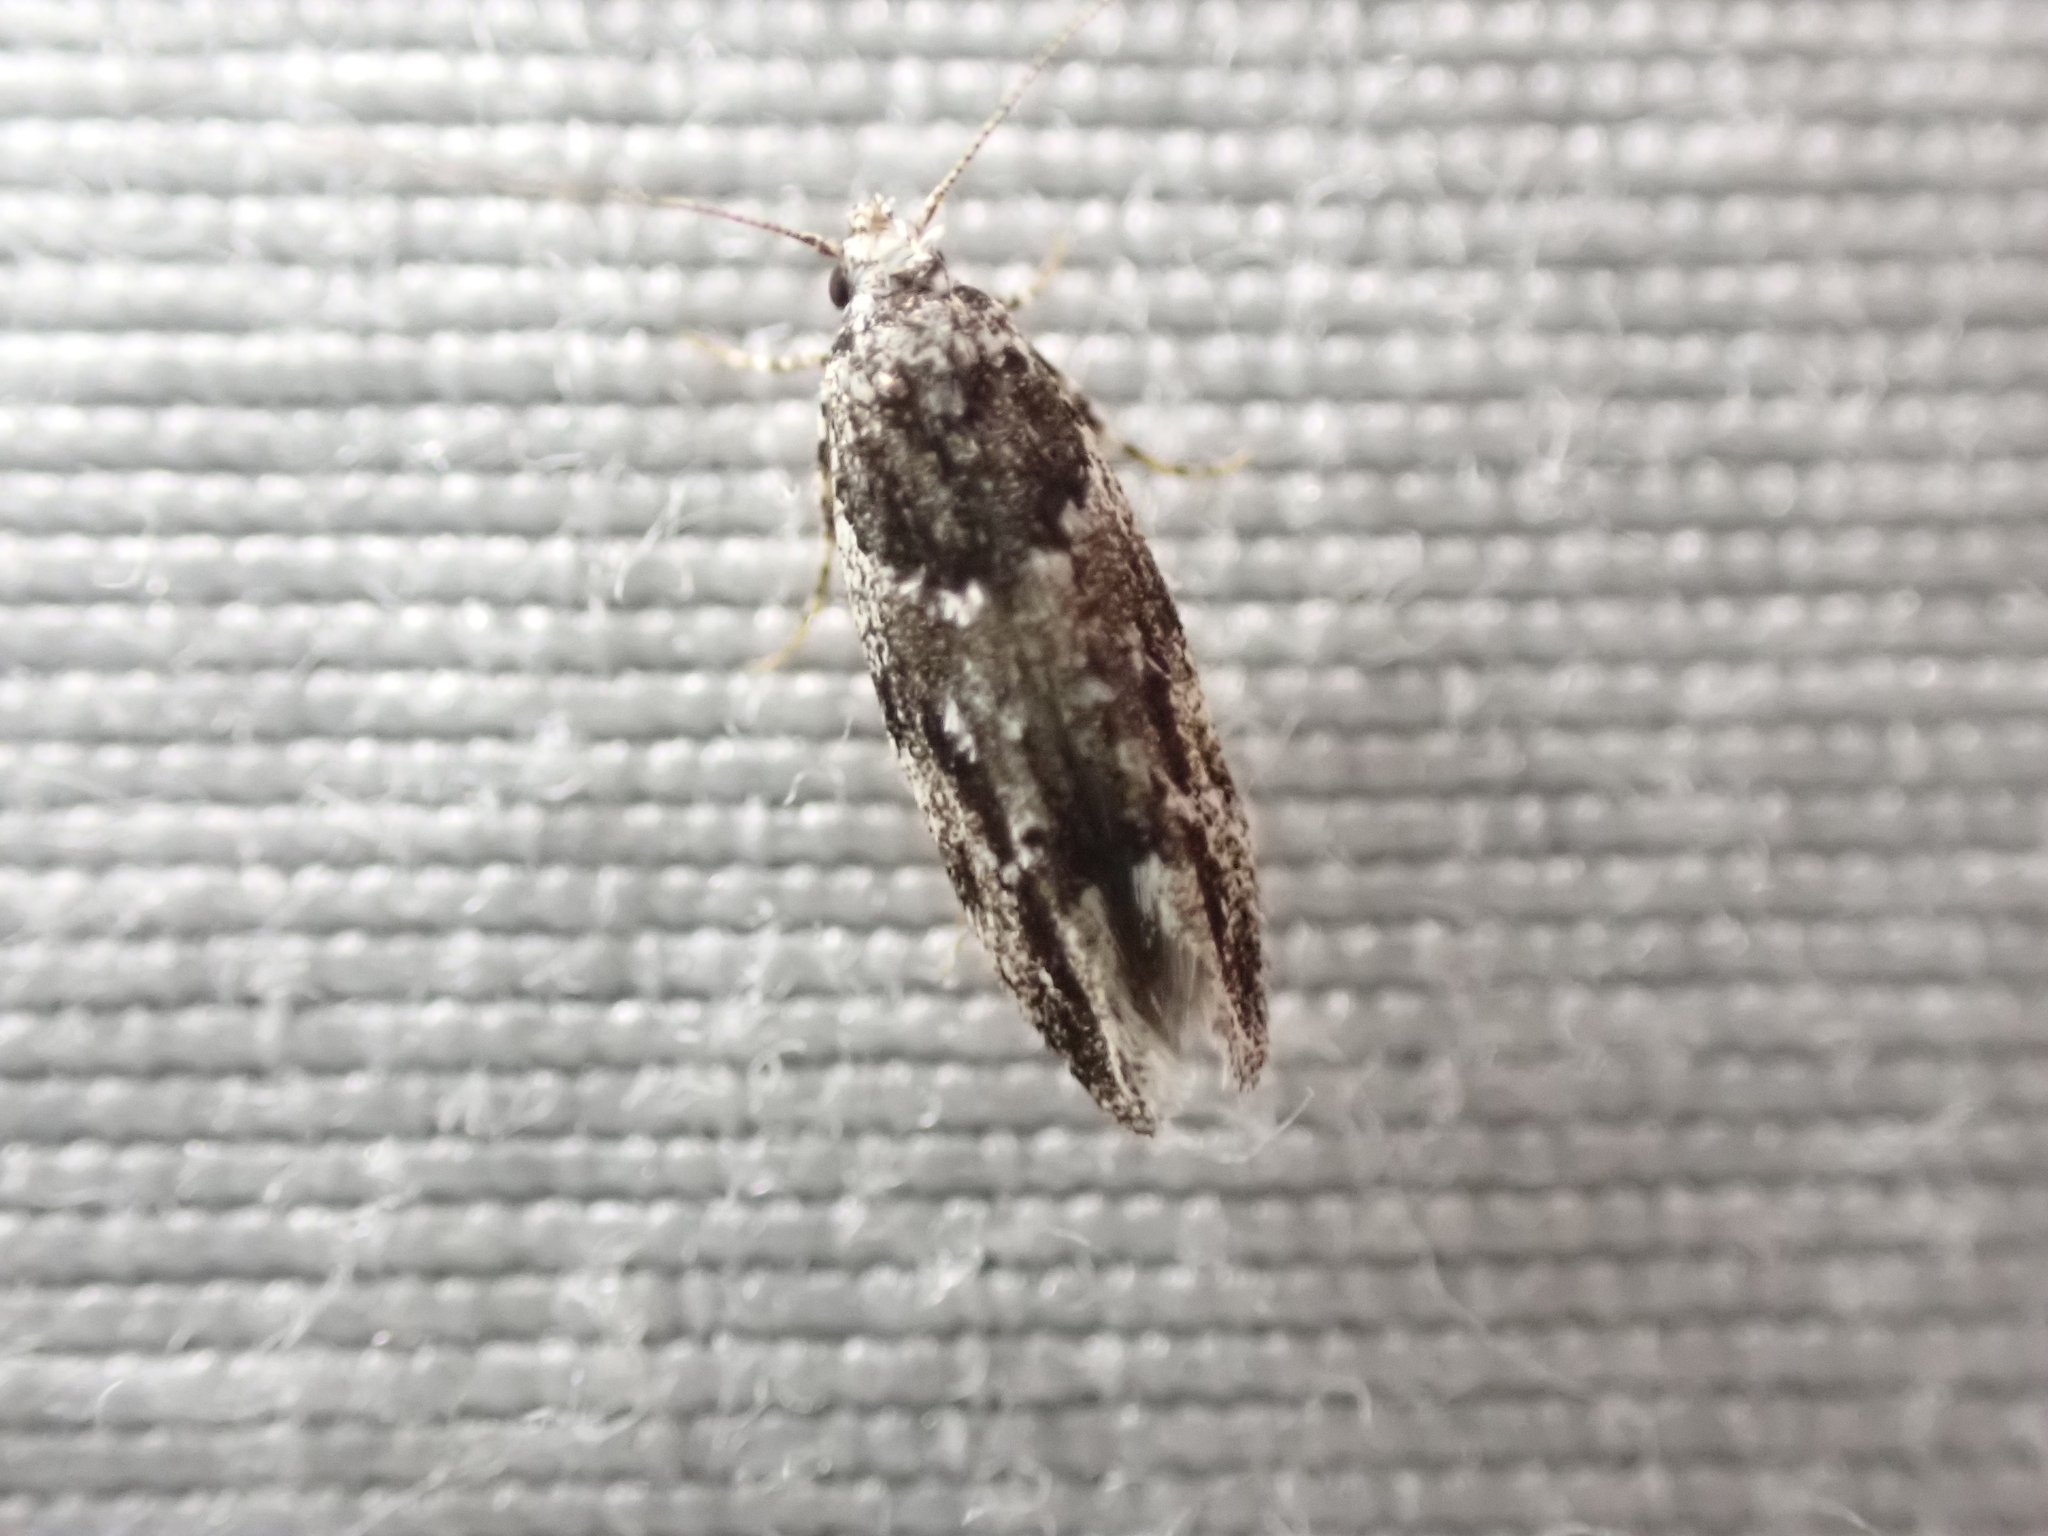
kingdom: Animalia
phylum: Arthropoda
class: Insecta
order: Lepidoptera
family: Gelechiidae
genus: Recurvaria
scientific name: Recurvaria nanella
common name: Gelechiid moth
